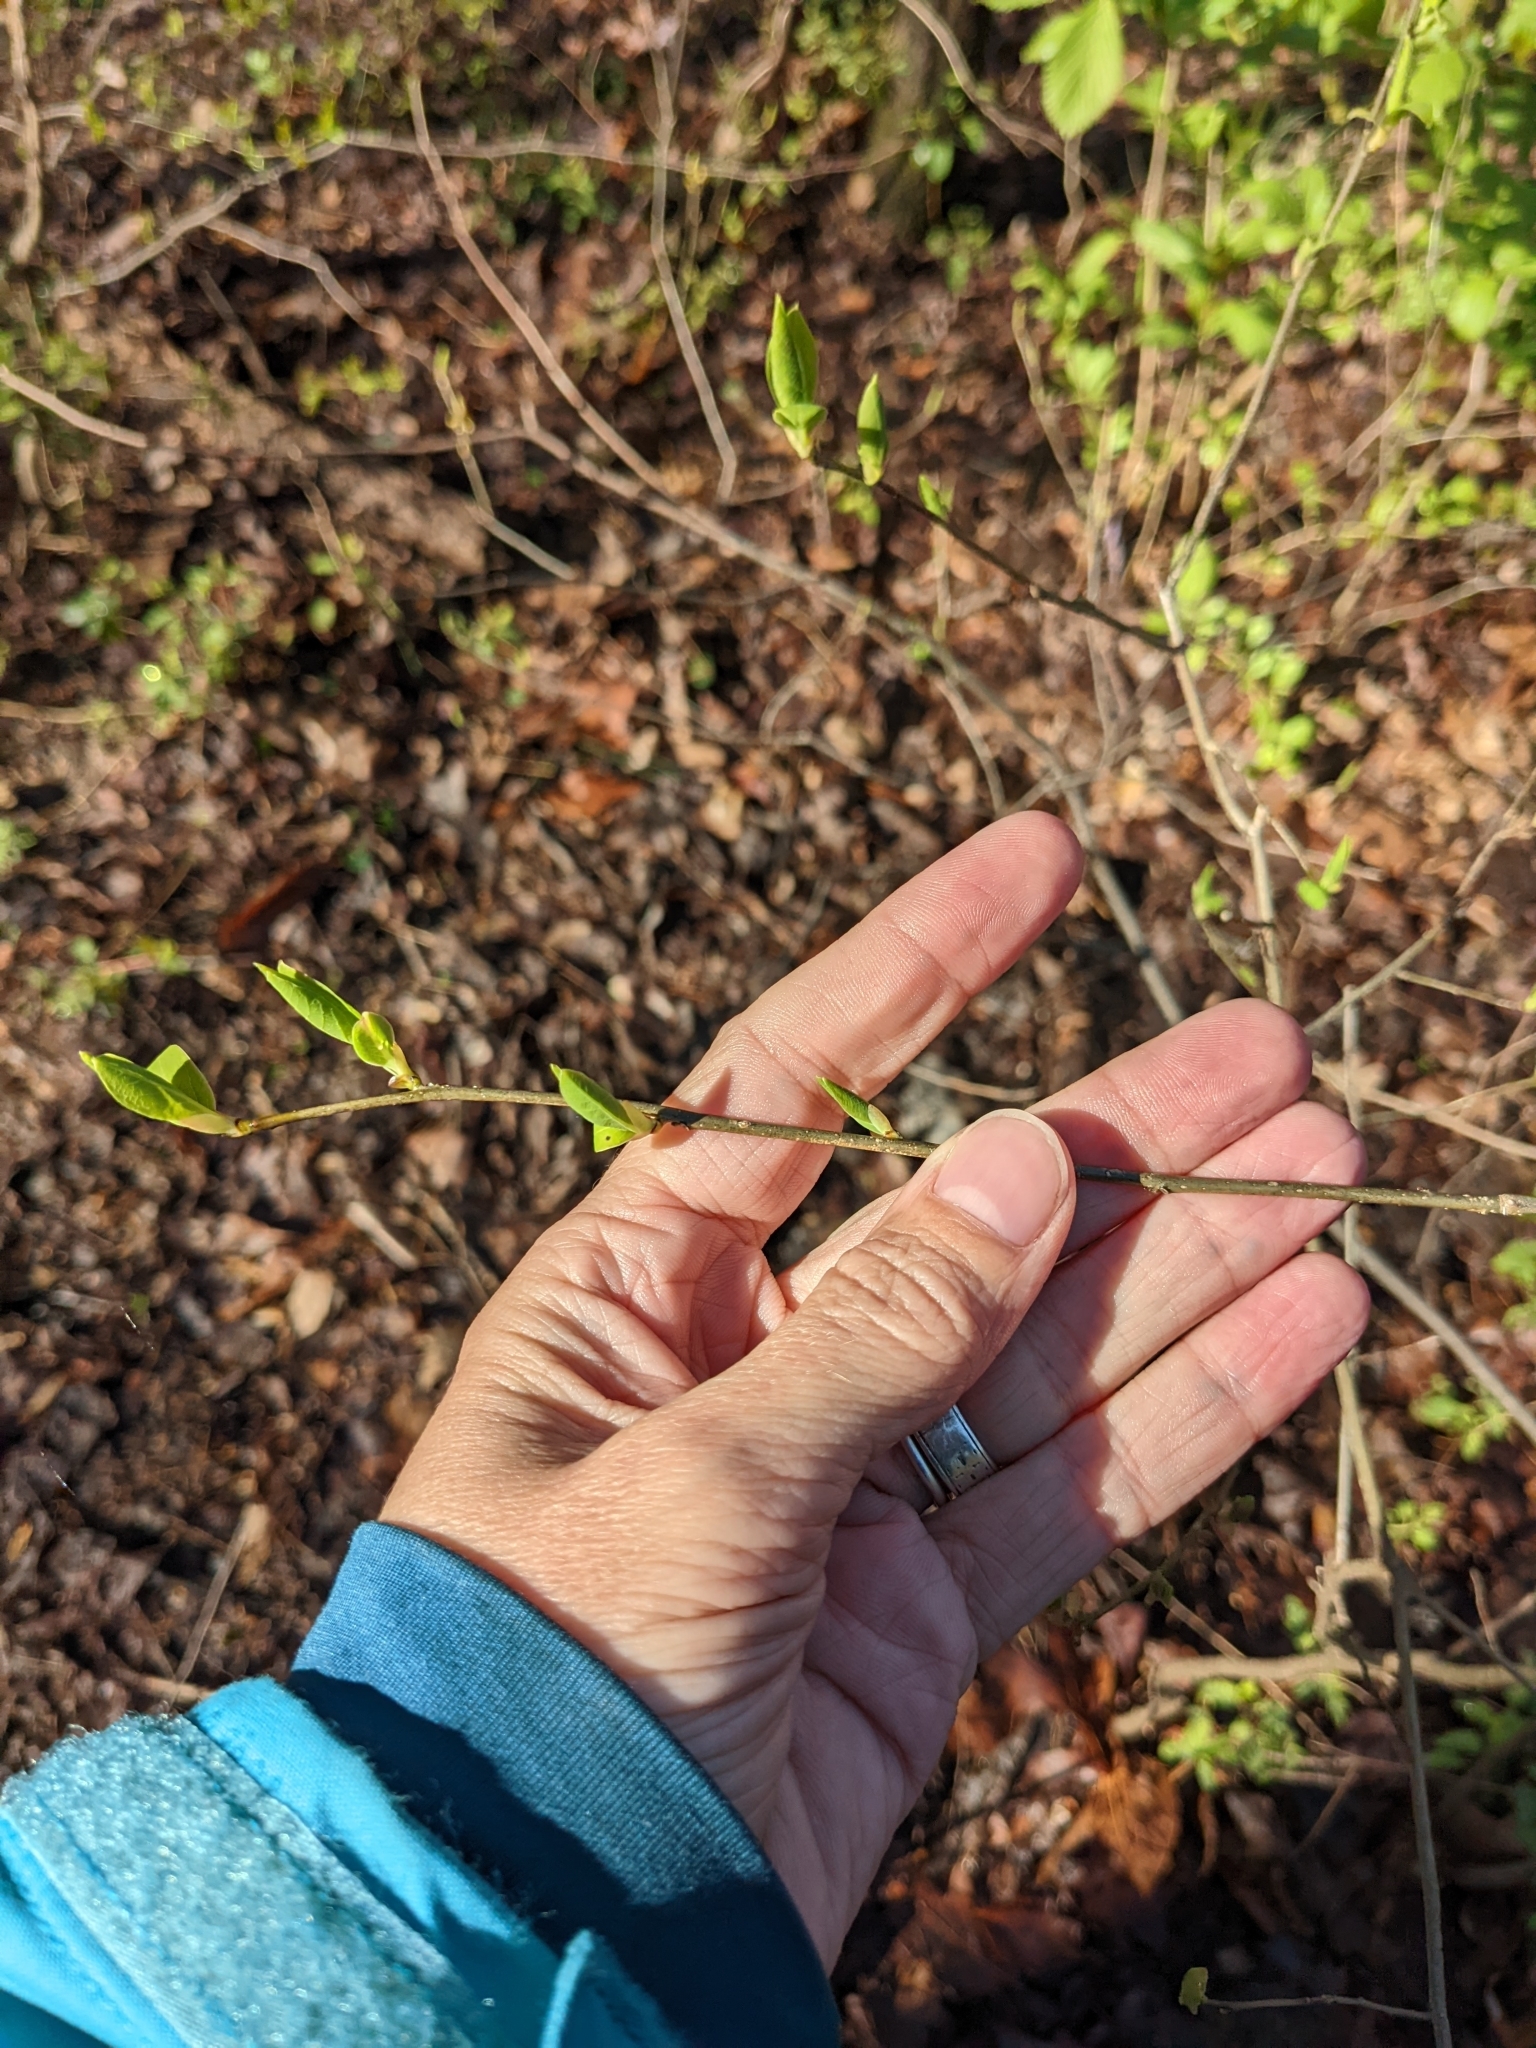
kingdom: Plantae
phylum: Tracheophyta
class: Magnoliopsida
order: Laurales
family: Lauraceae
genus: Lindera
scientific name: Lindera benzoin
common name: Spicebush
